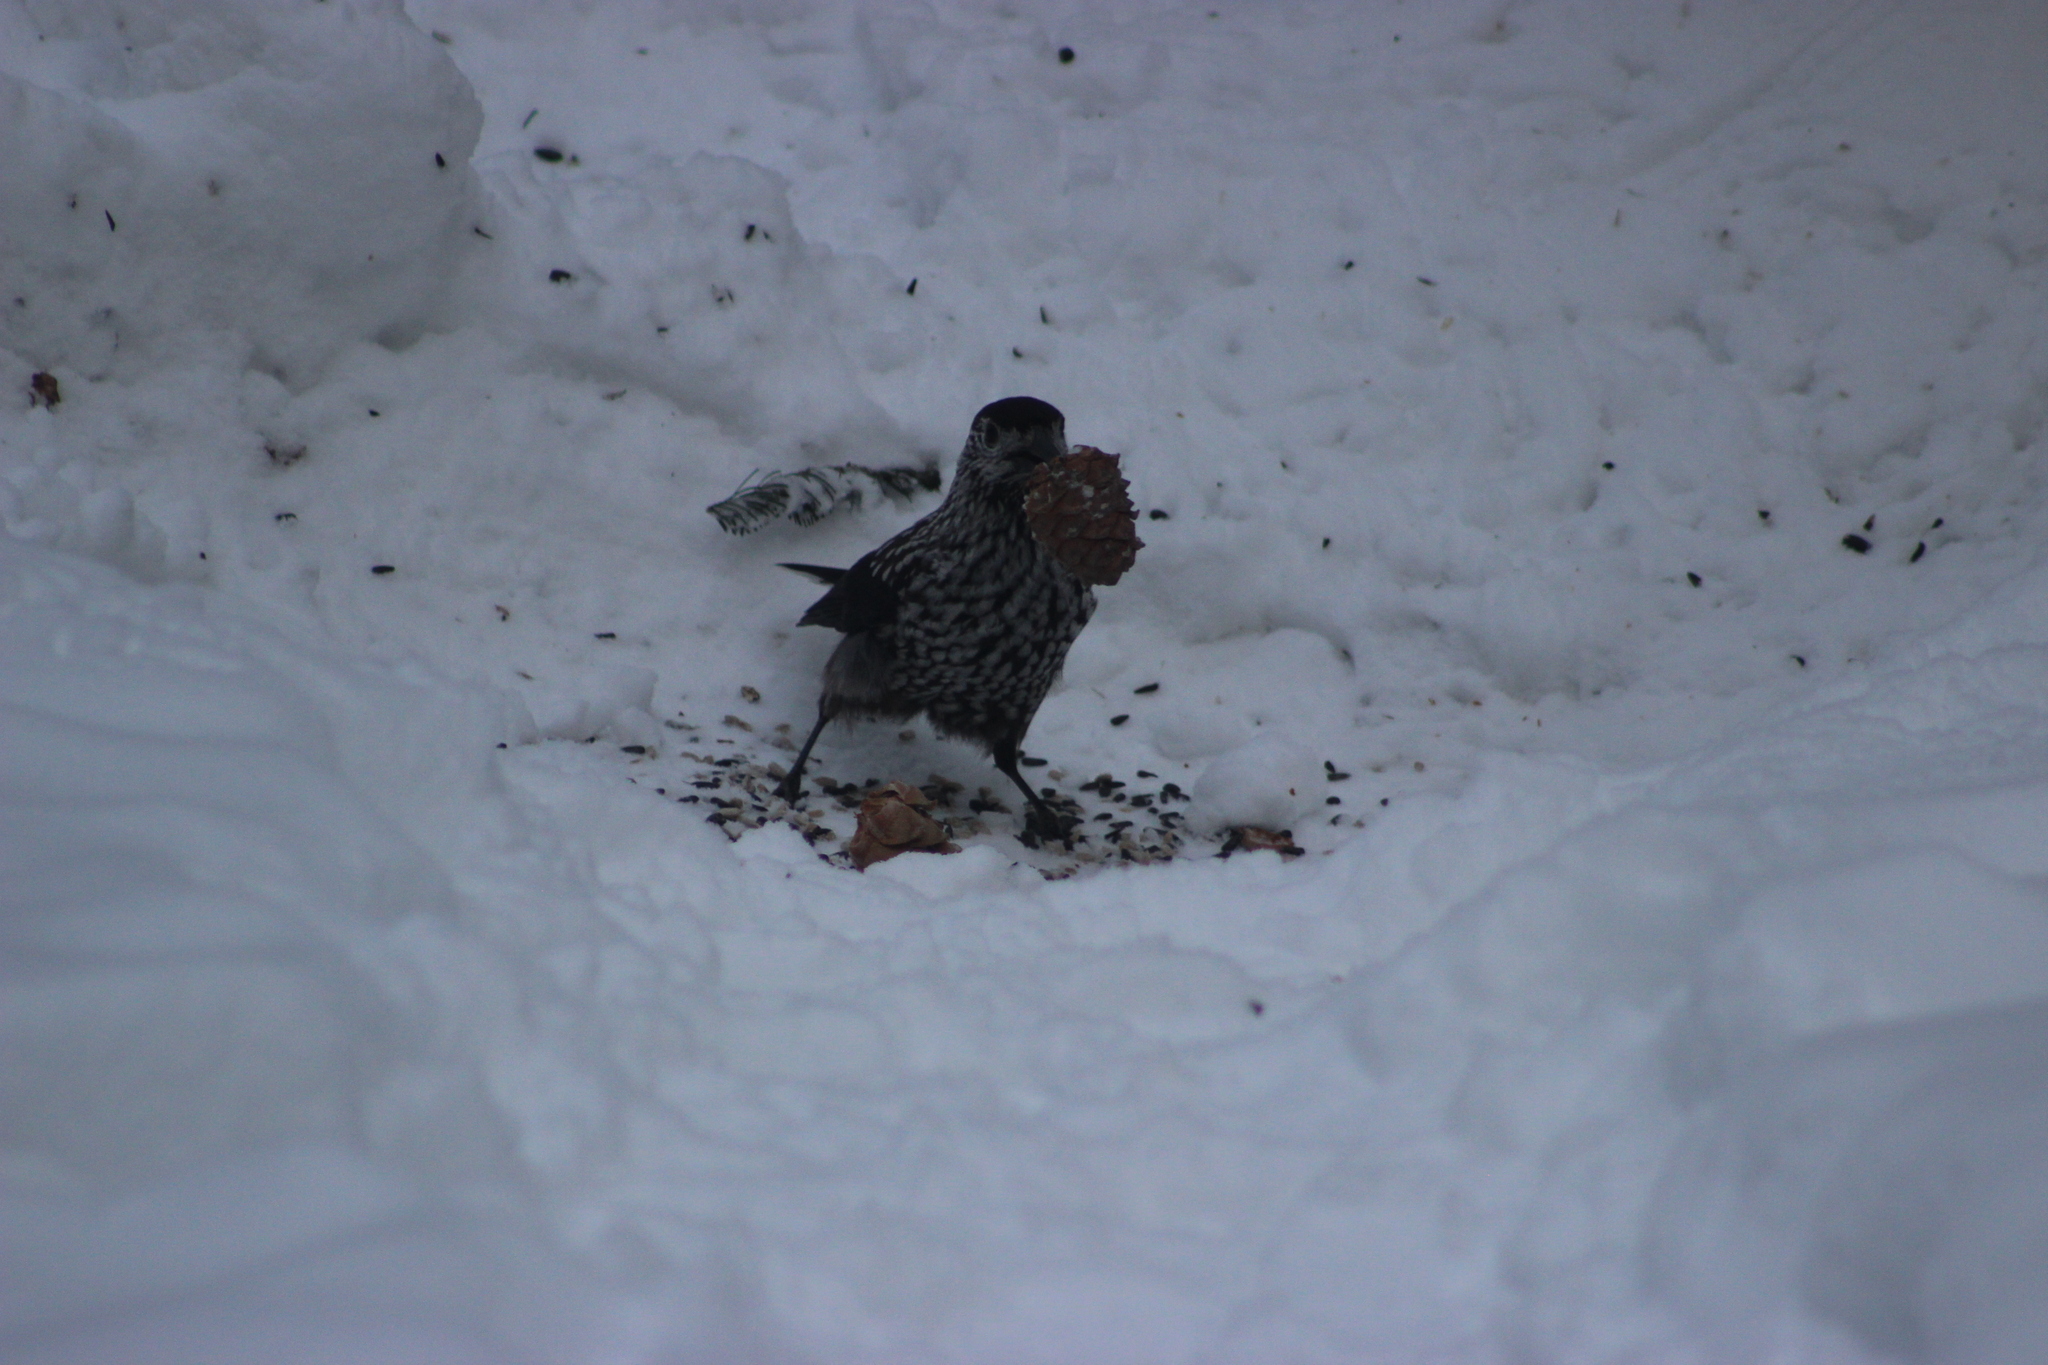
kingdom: Animalia
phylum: Chordata
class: Aves
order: Passeriformes
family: Corvidae
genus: Nucifraga
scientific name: Nucifraga caryocatactes
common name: Spotted nutcracker
